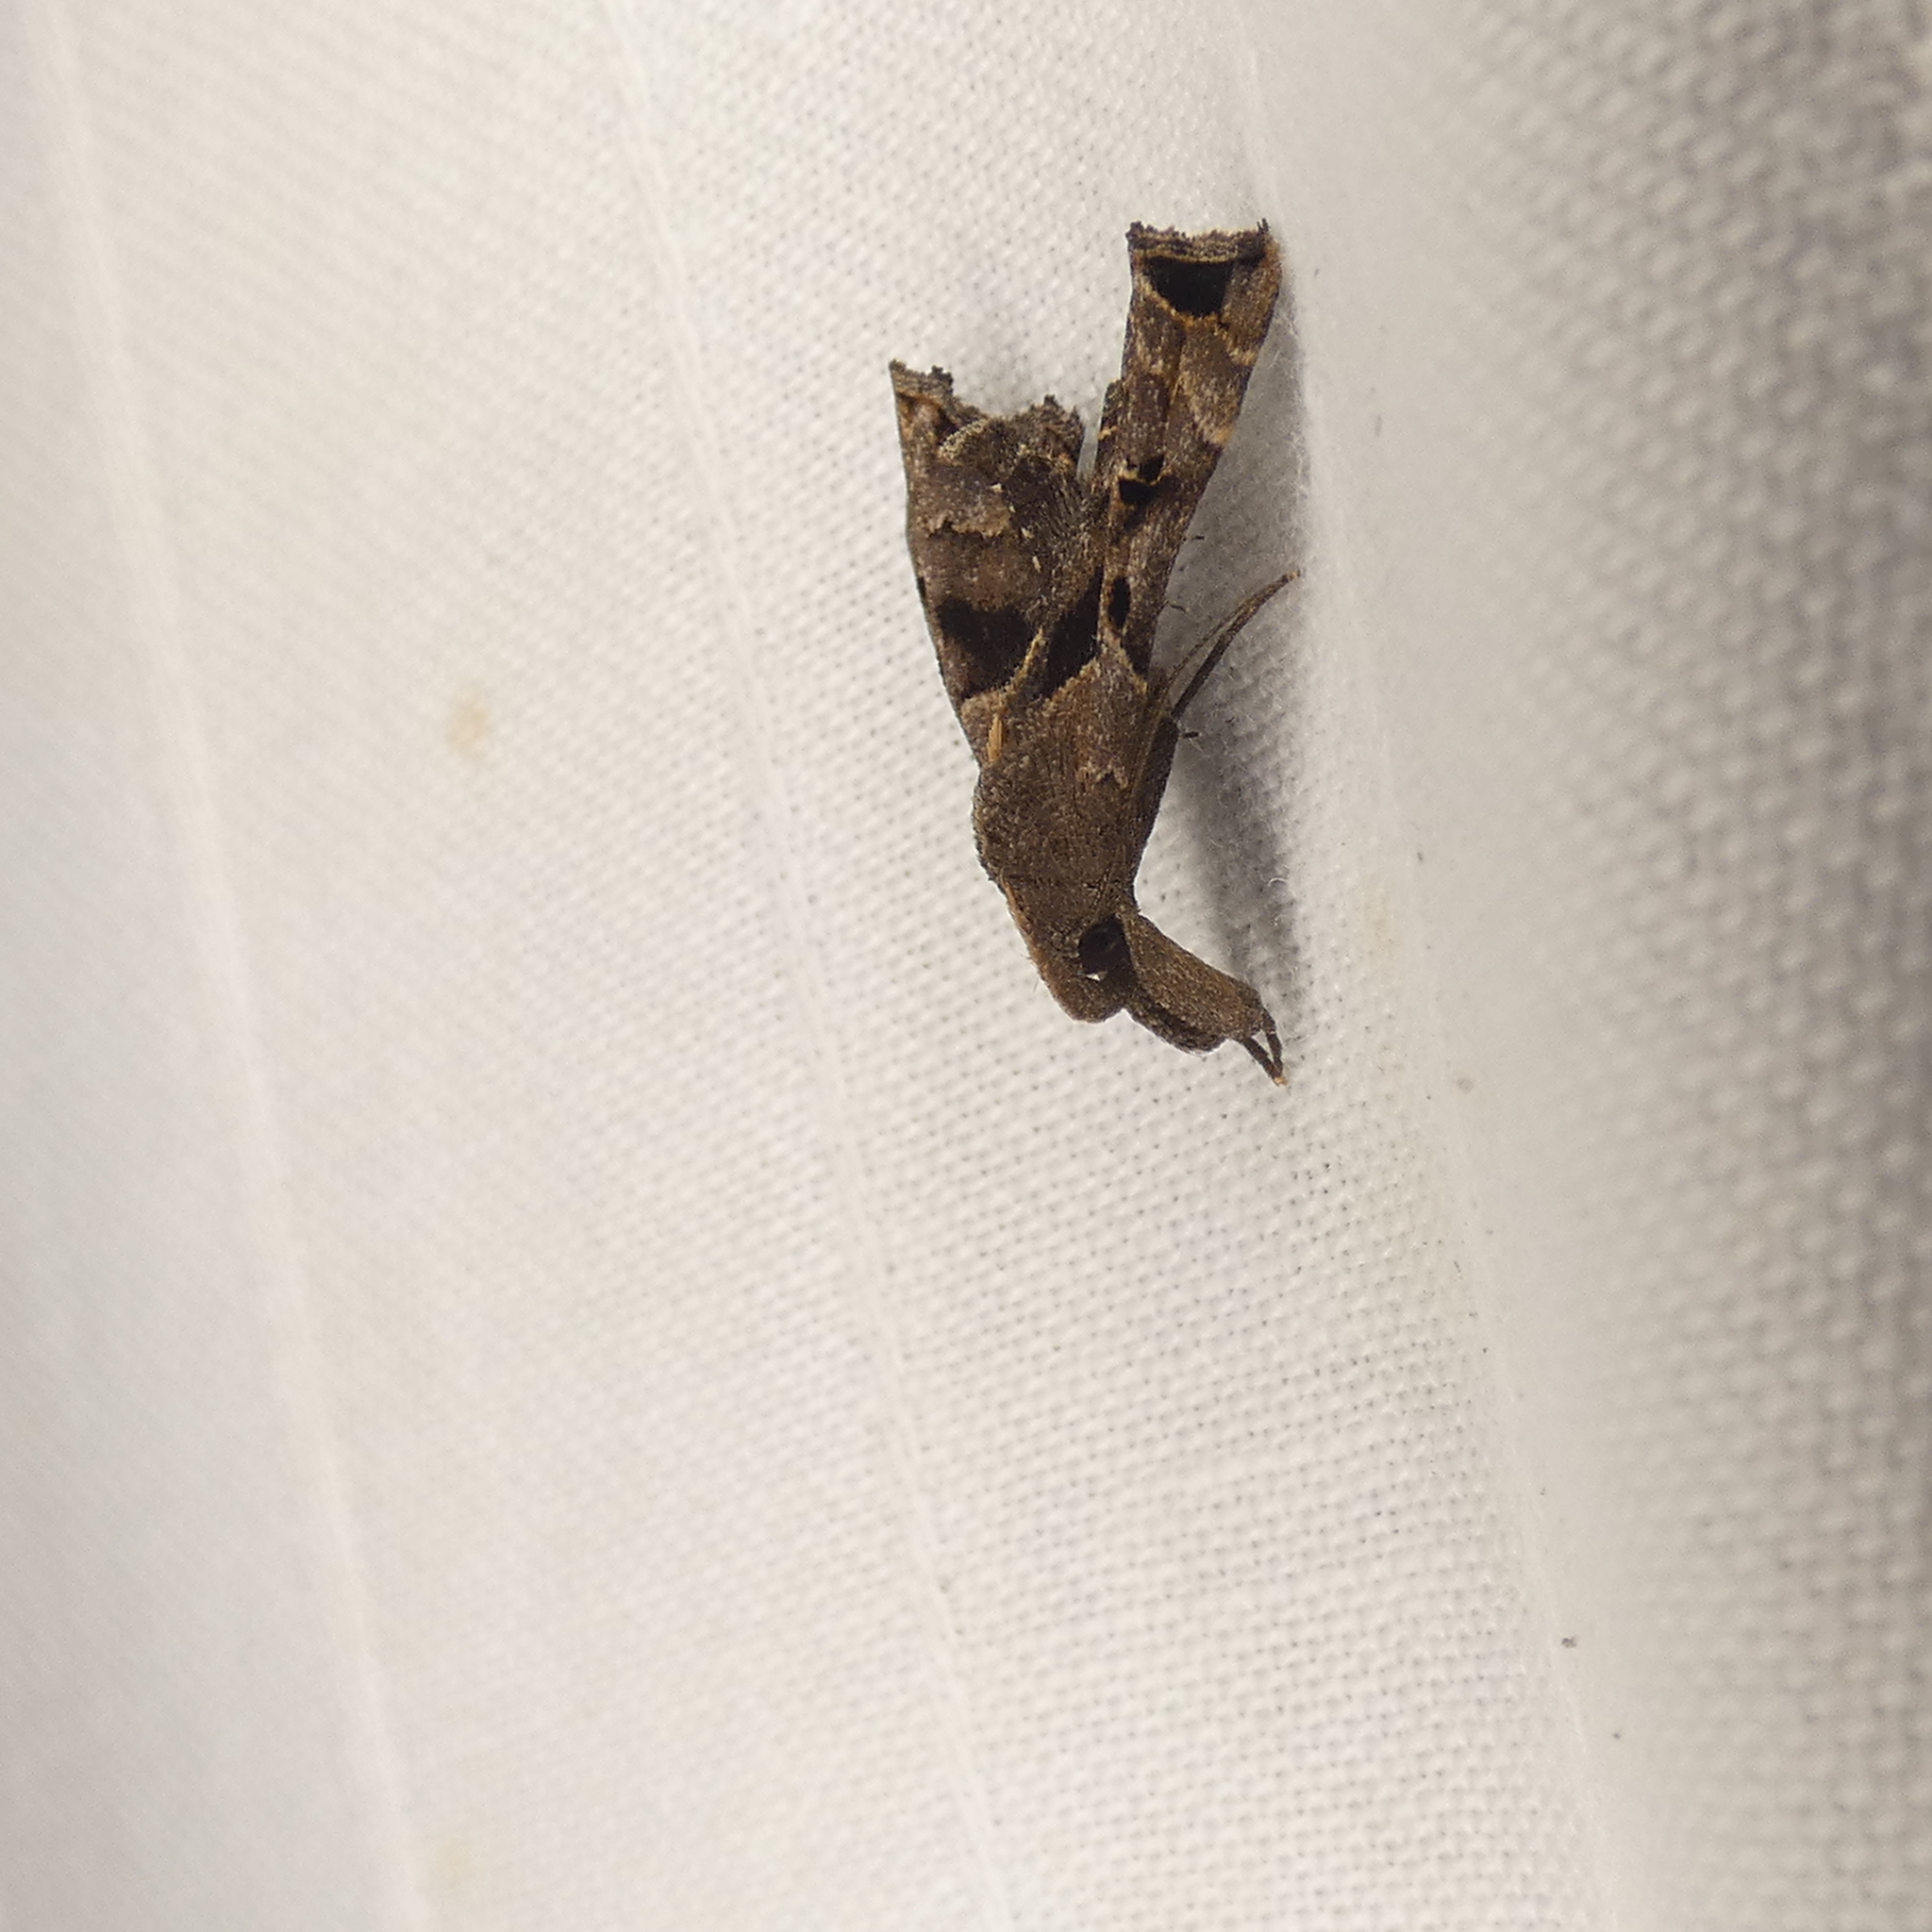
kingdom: Animalia
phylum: Arthropoda
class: Insecta
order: Lepidoptera
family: Erebidae
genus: Palthis
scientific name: Palthis asopialis
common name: Faint-spotted palthis moth
